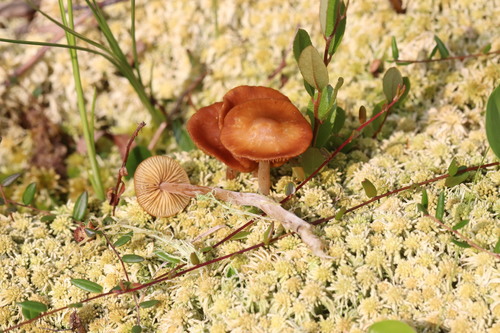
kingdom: Fungi
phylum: Basidiomycota
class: Agaricomycetes
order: Agaricales
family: Hymenogastraceae
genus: Galerina
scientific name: Galerina tibiicystis
